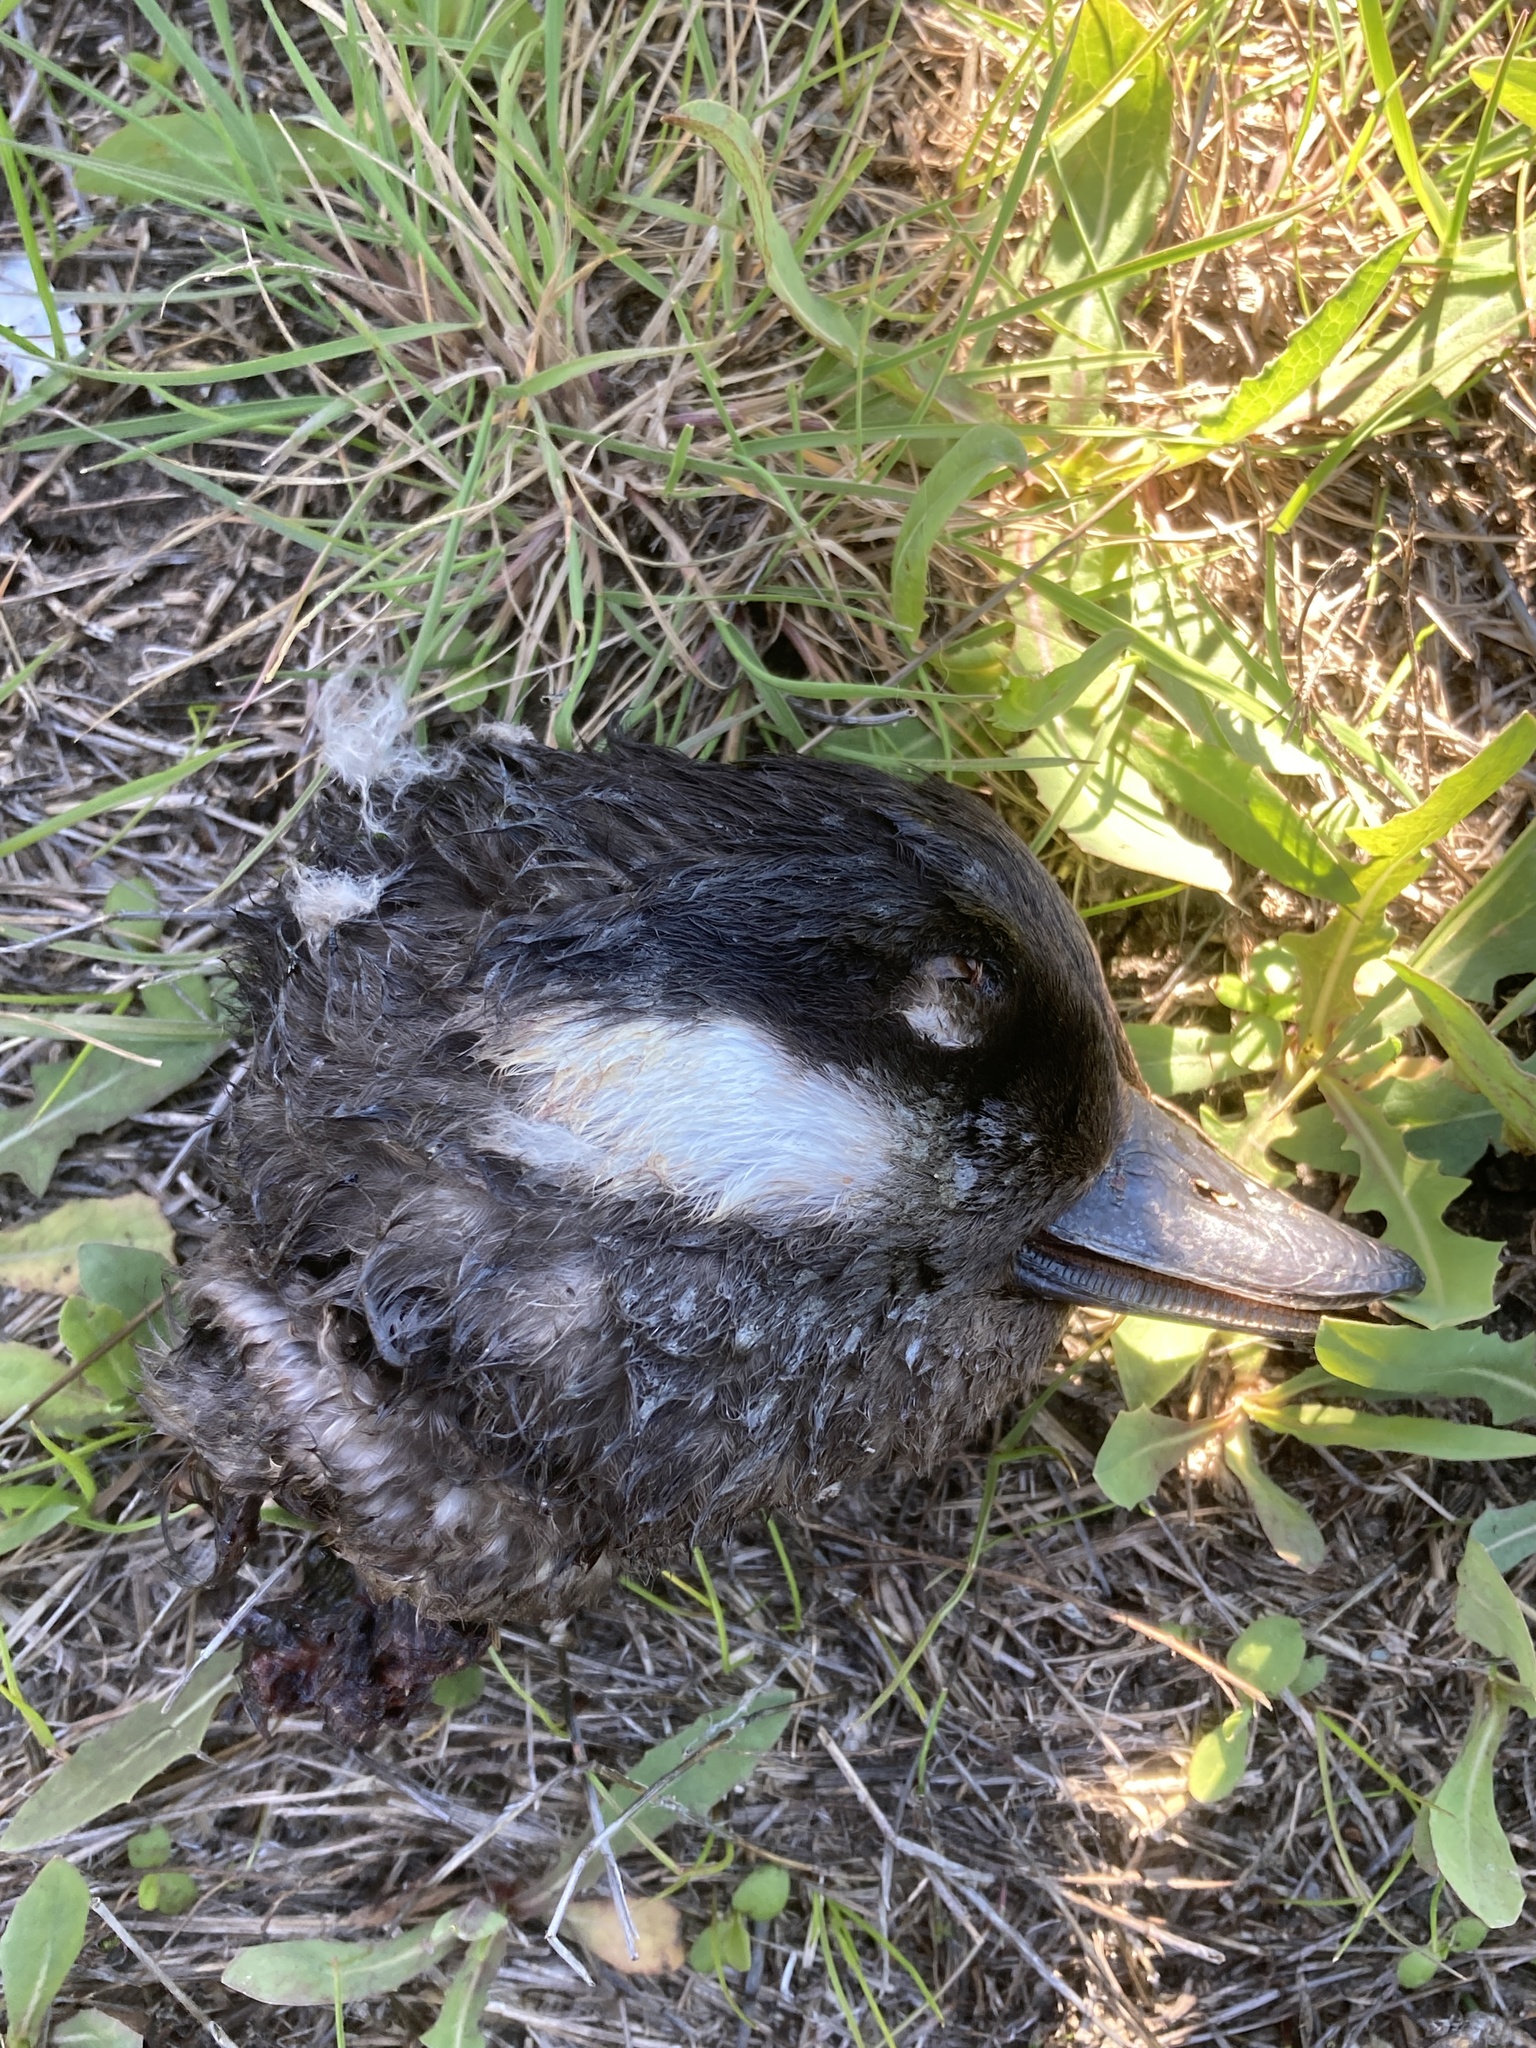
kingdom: Animalia
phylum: Chordata
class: Aves
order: Anseriformes
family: Anatidae
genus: Bucephala
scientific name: Bucephala albeola
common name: Bufflehead
